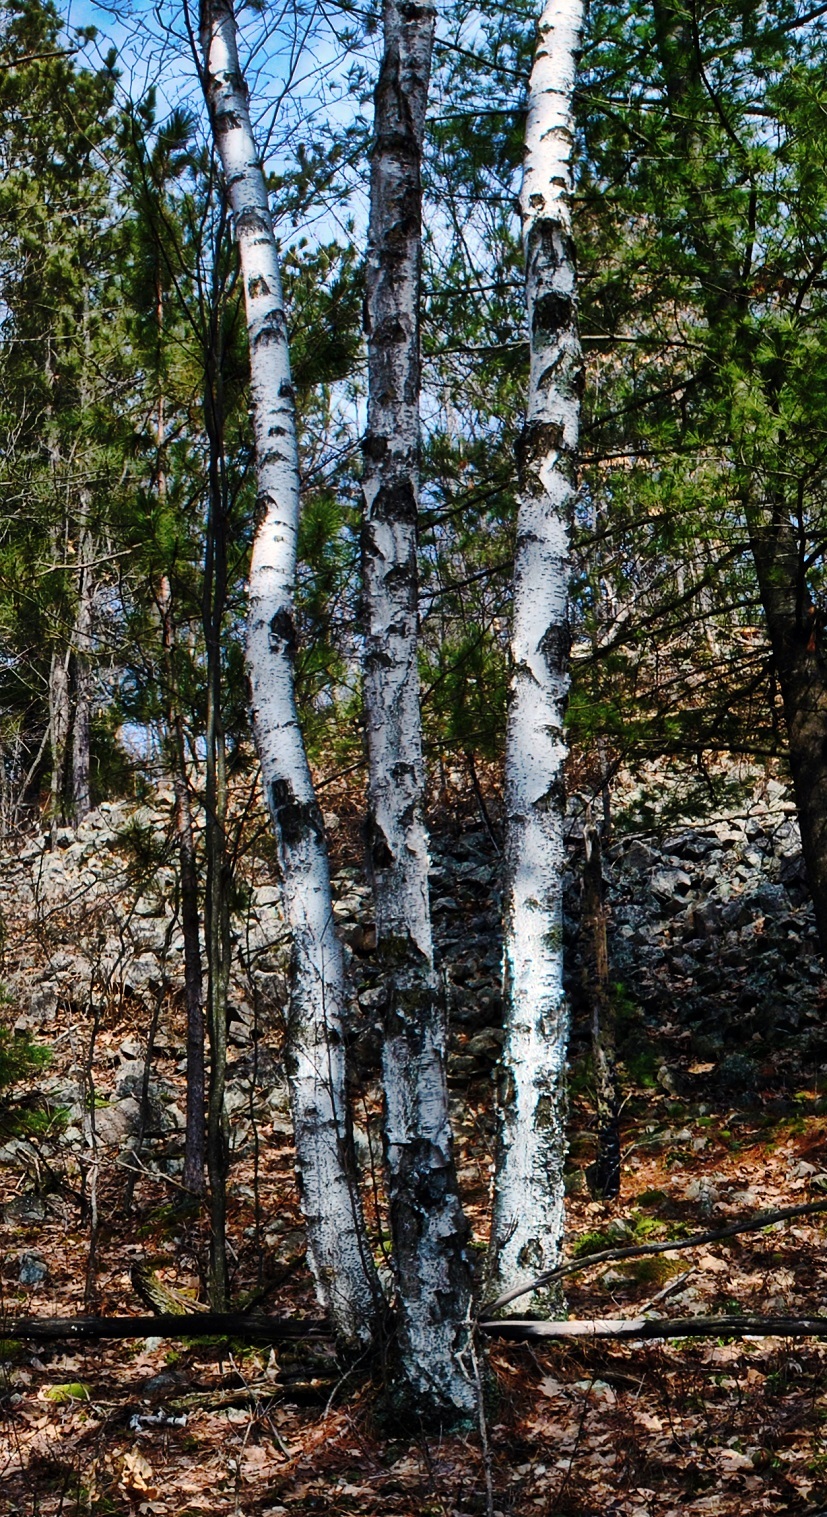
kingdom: Plantae
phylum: Tracheophyta
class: Magnoliopsida
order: Fagales
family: Betulaceae
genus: Betula
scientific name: Betula papyrifera
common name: Paper birch
